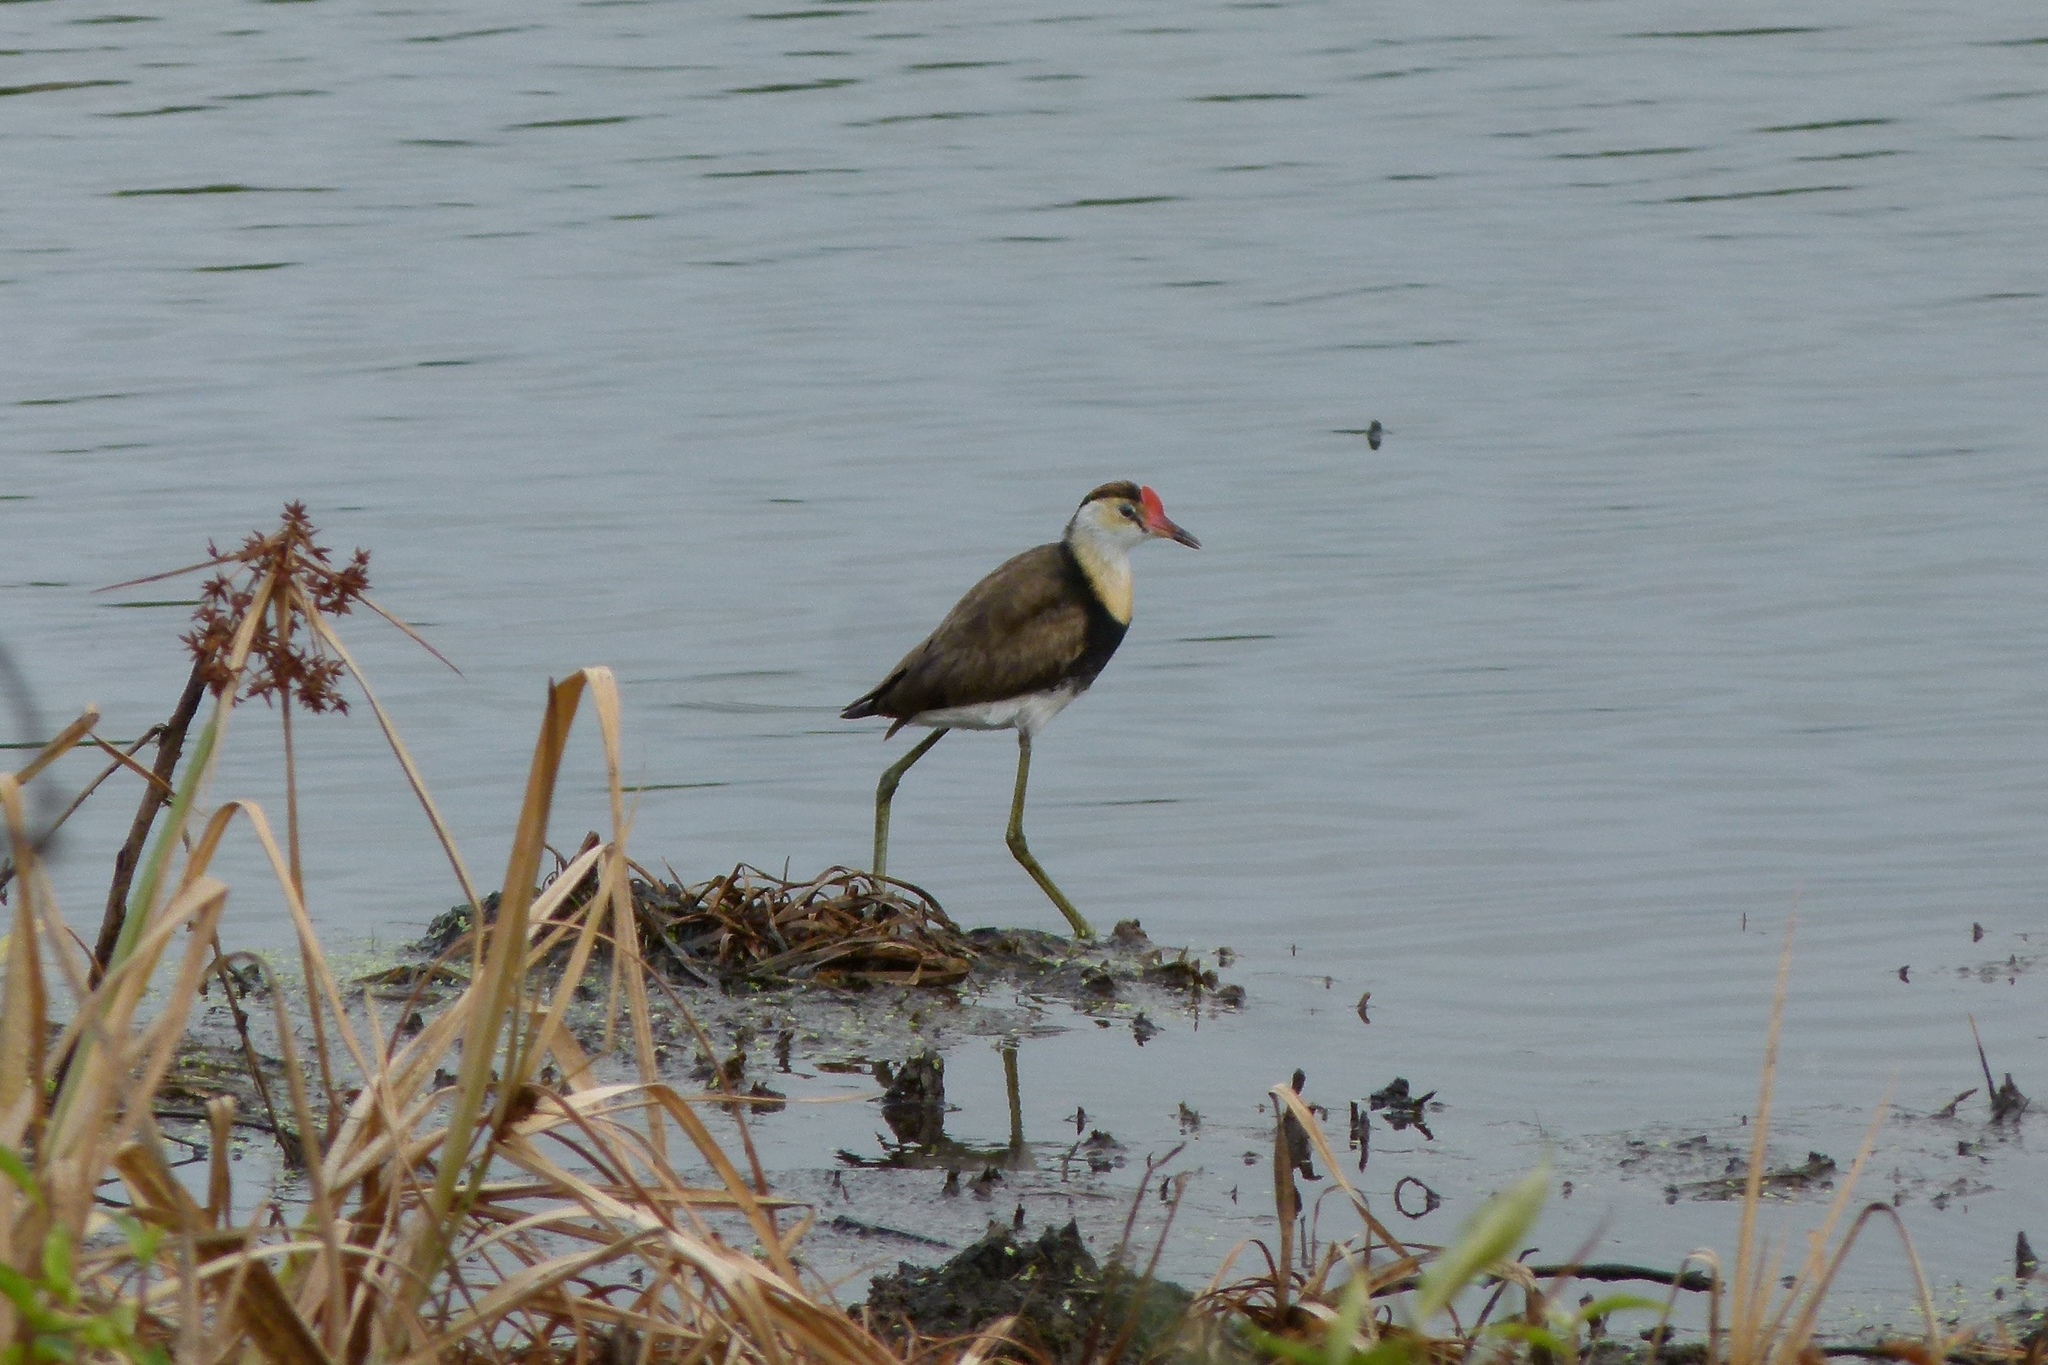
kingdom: Animalia
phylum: Chordata
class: Aves
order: Charadriiformes
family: Jacanidae
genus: Irediparra
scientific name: Irediparra gallinacea
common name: Comb-crested jacana
